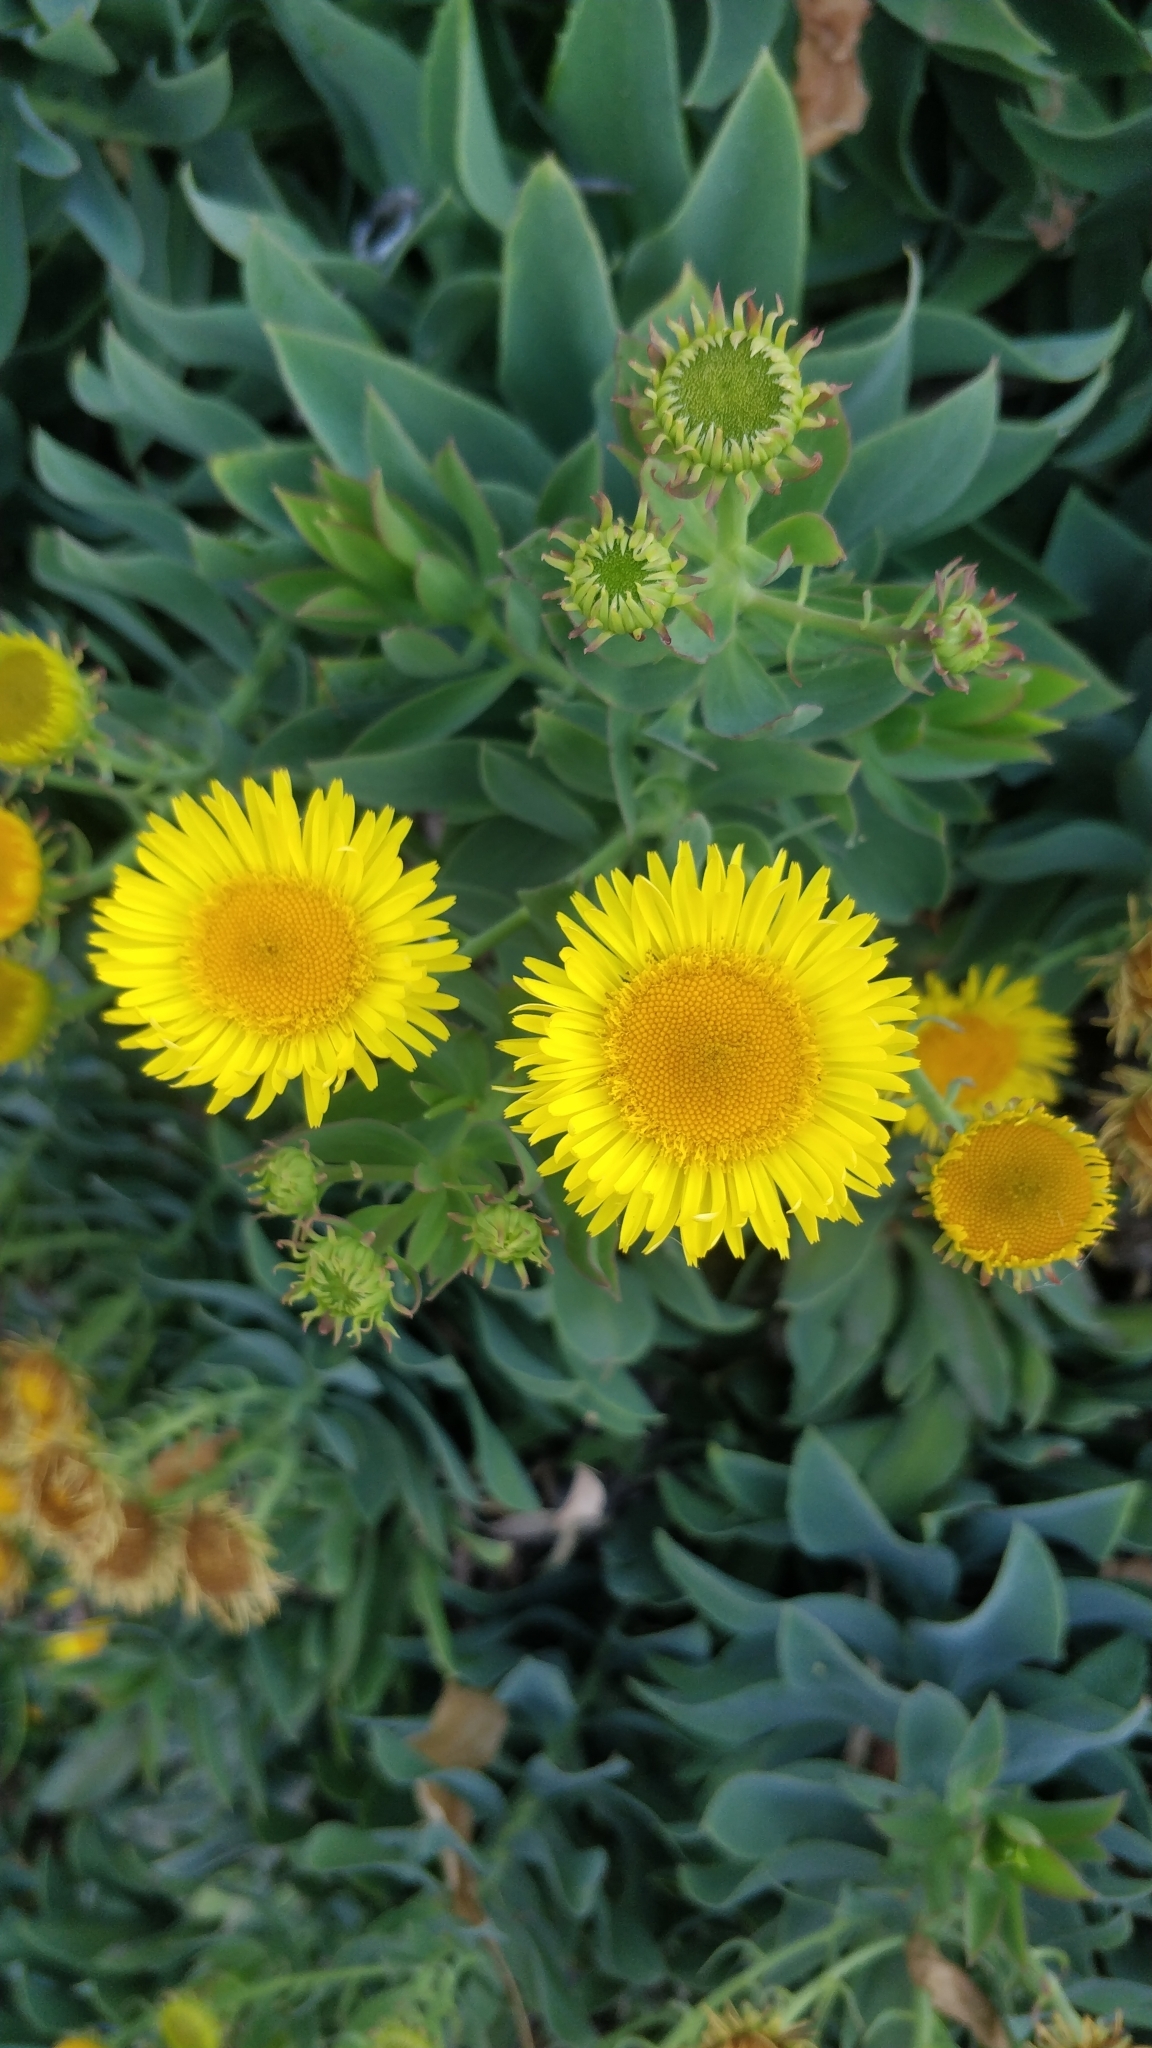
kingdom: Plantae
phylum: Tracheophyta
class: Magnoliopsida
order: Asterales
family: Asteraceae
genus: Vieraea
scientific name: Vieraea laevigata
